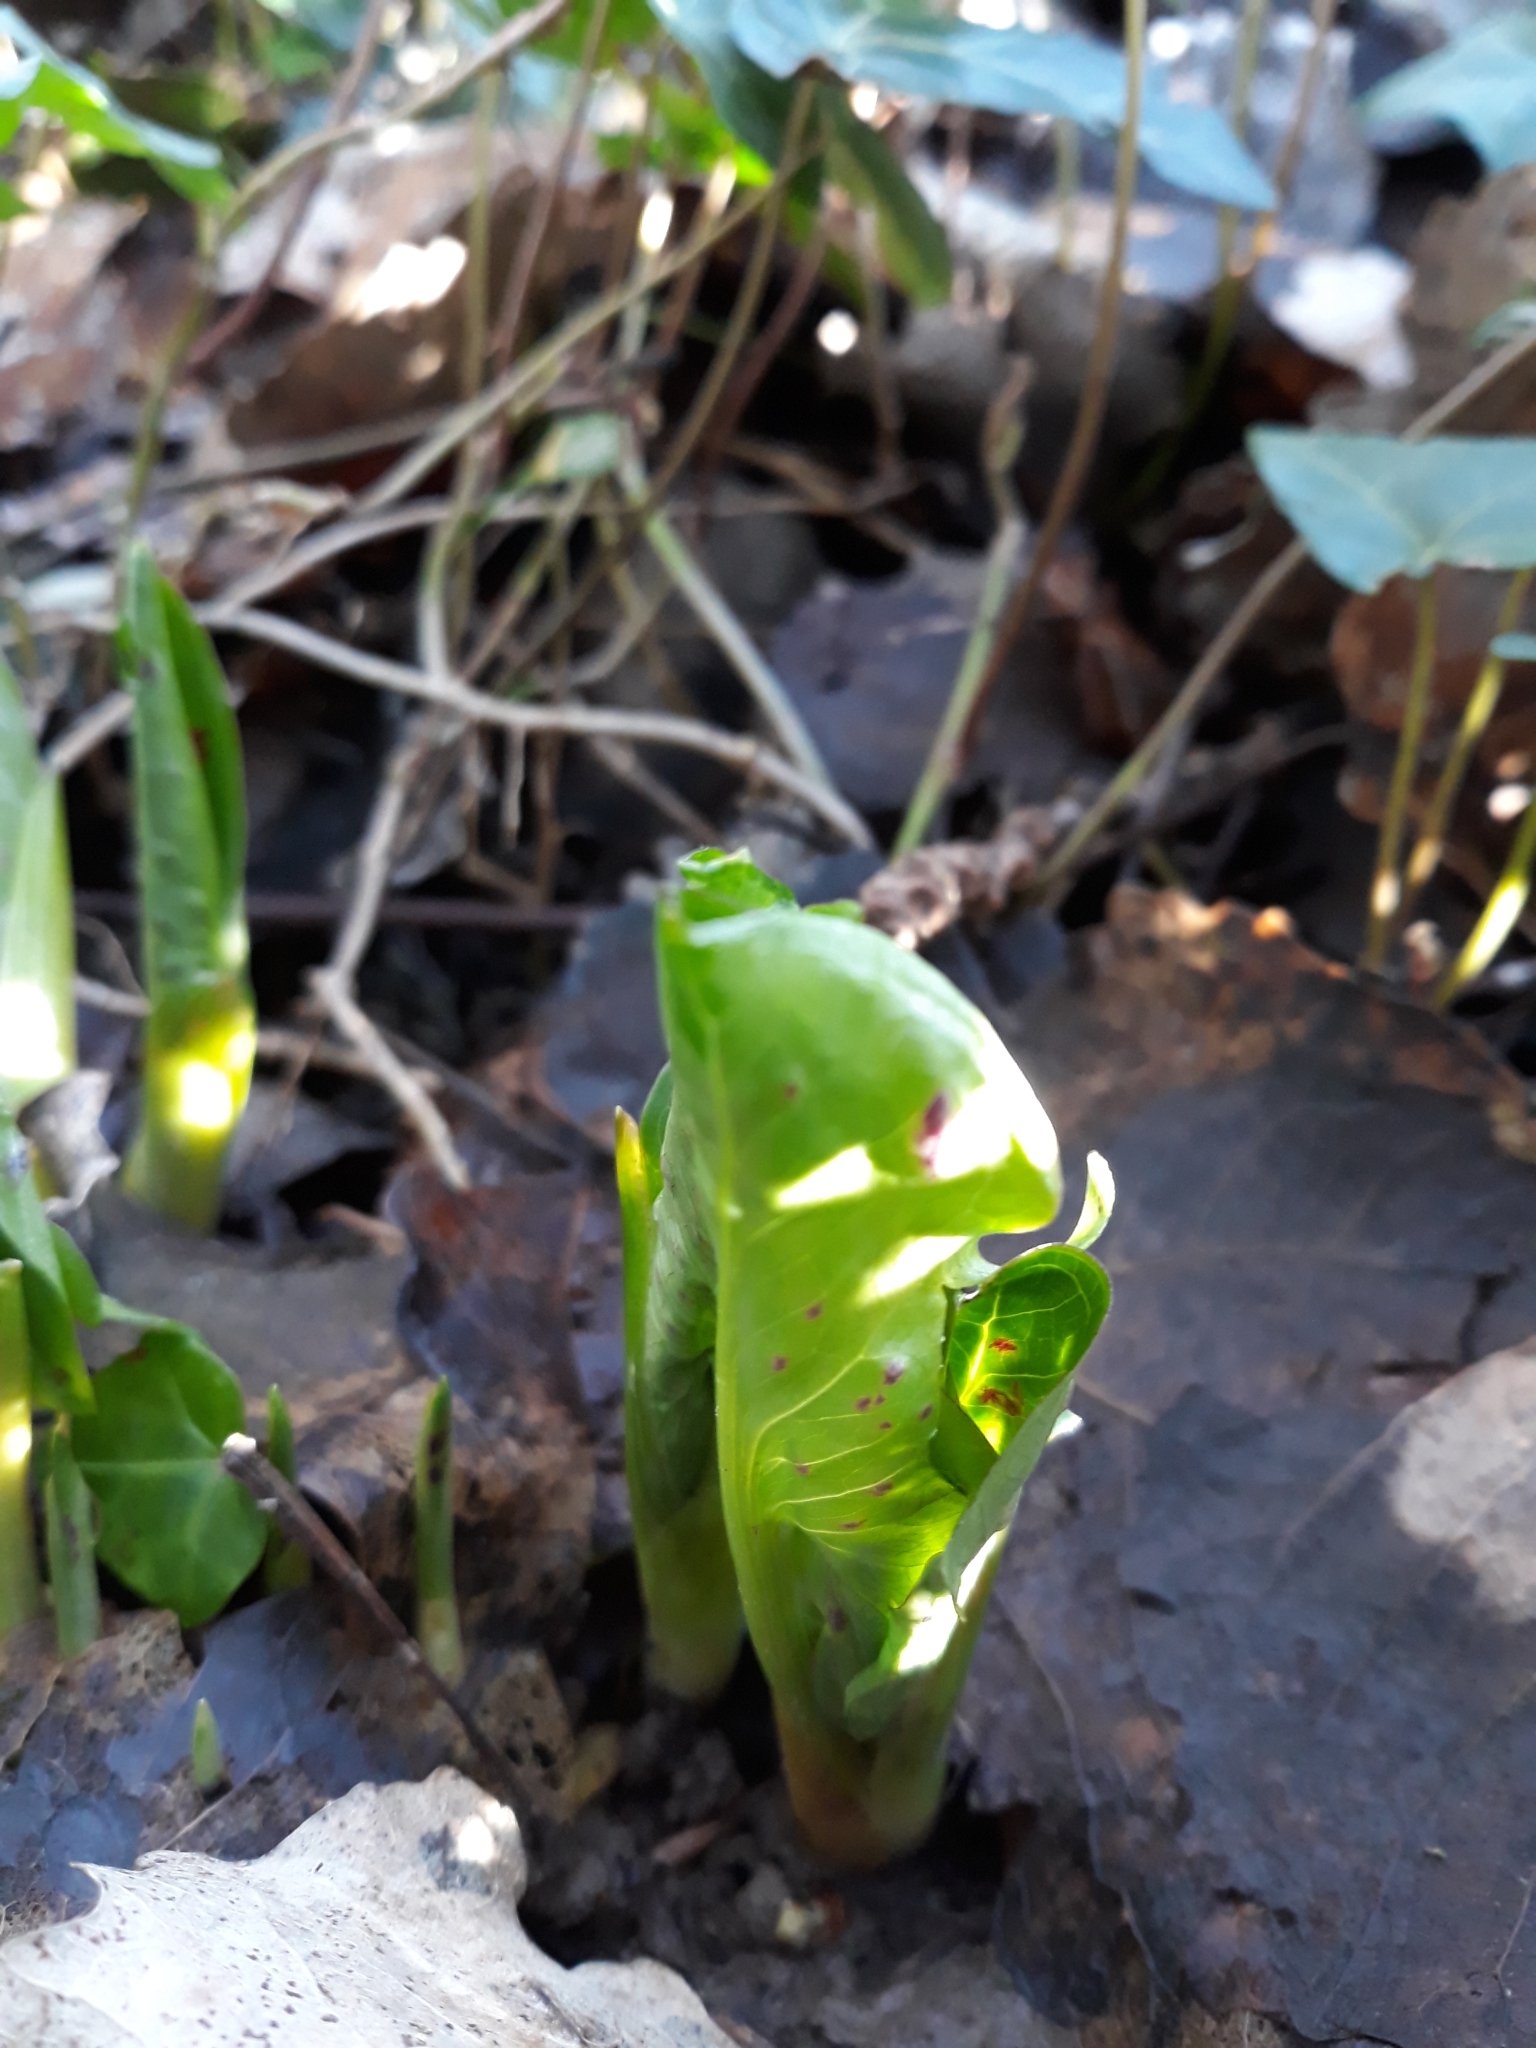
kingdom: Plantae
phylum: Tracheophyta
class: Liliopsida
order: Alismatales
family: Araceae
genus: Arum
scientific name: Arum maculatum
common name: Lords-and-ladies
